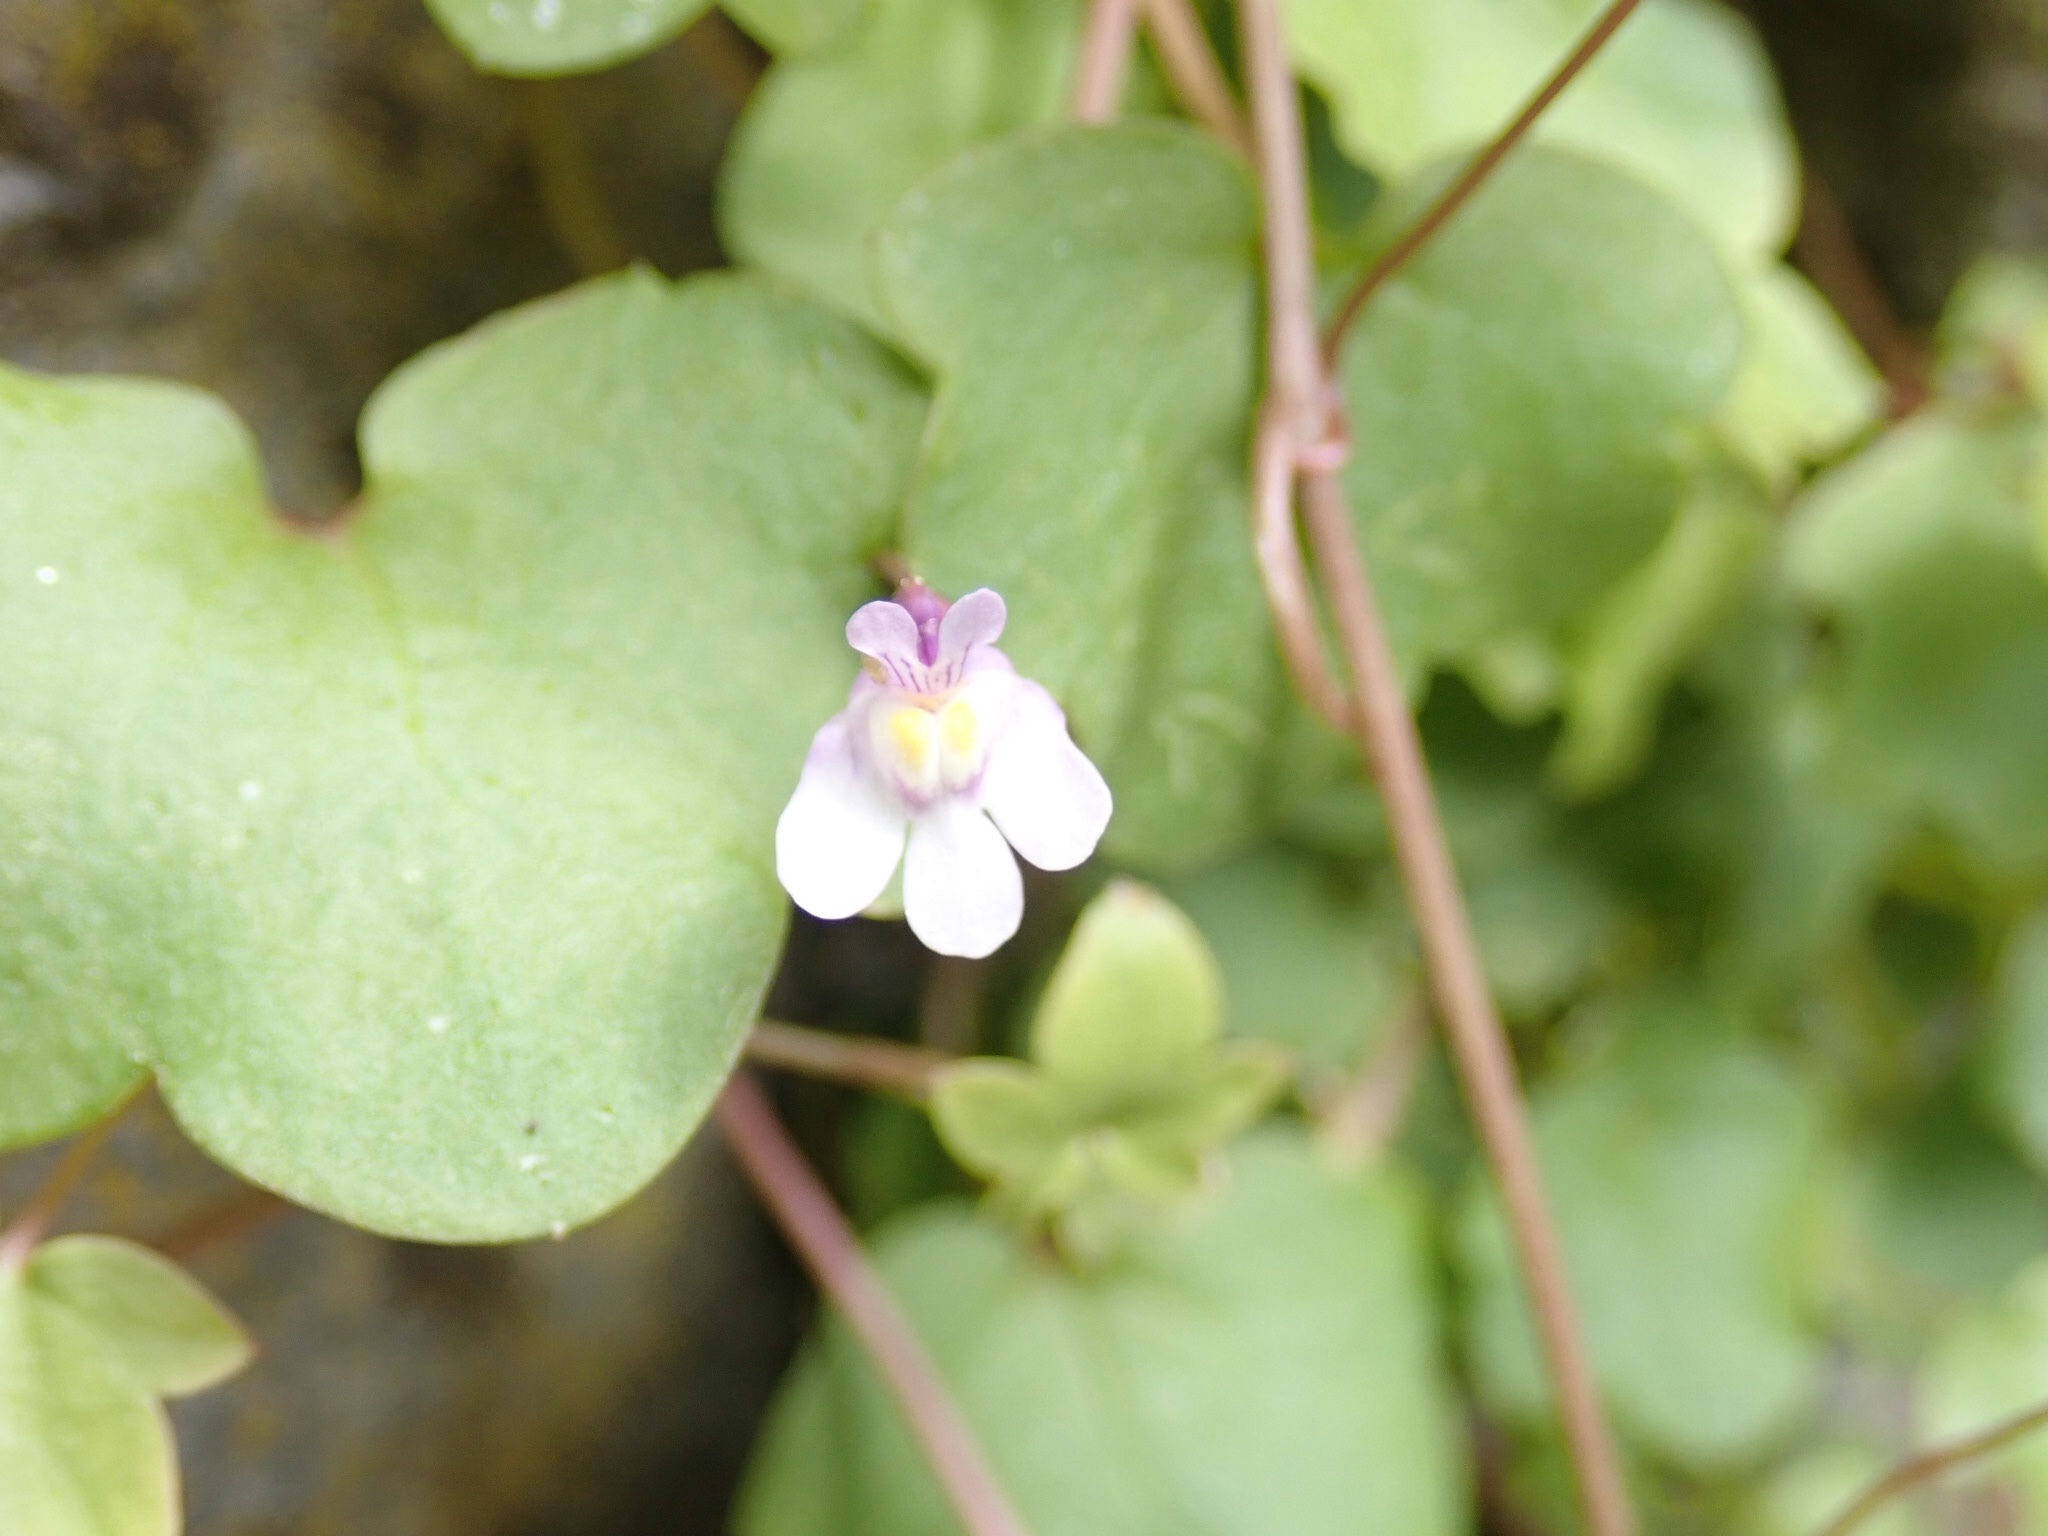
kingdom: Plantae
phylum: Tracheophyta
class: Magnoliopsida
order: Lamiales
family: Plantaginaceae
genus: Cymbalaria
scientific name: Cymbalaria muralis
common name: Ivy-leaved toadflax
